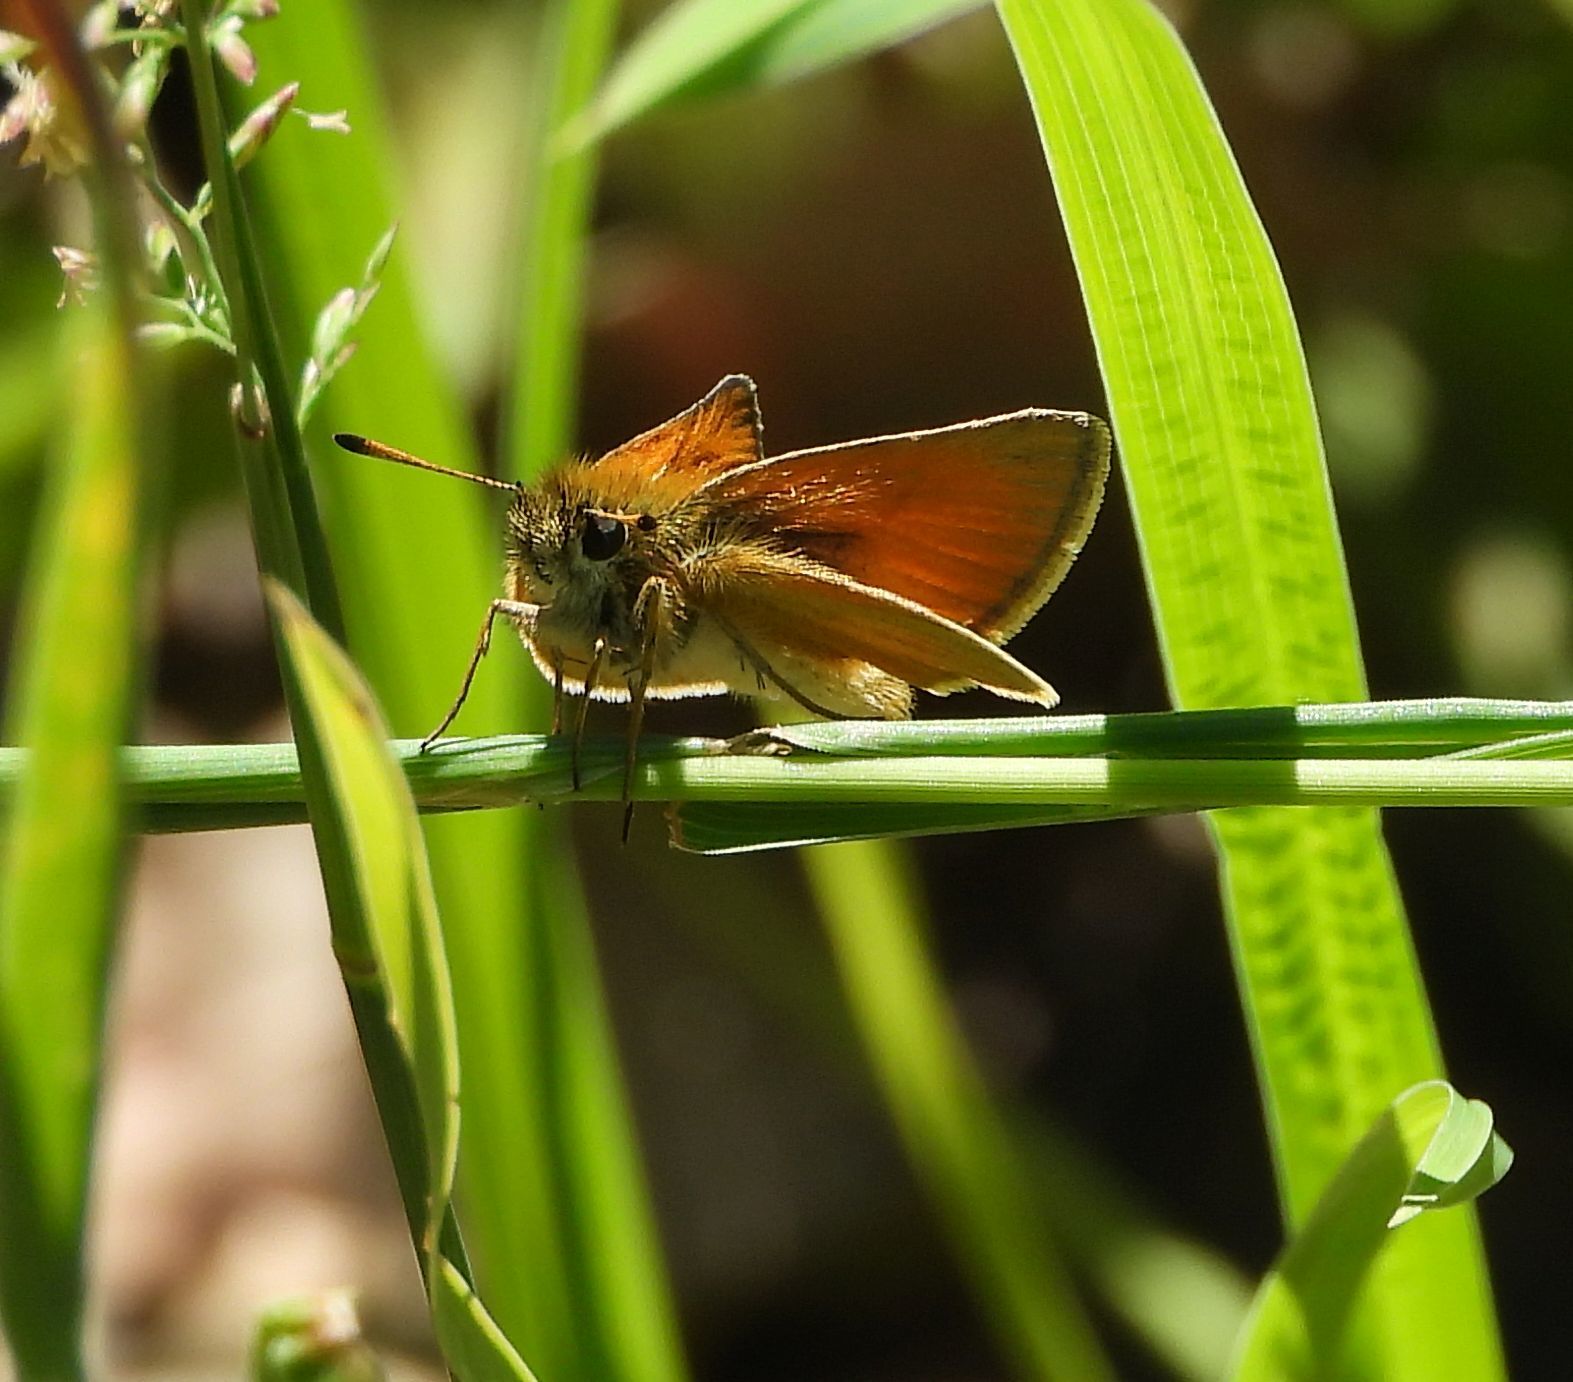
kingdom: Animalia
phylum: Arthropoda
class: Insecta
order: Lepidoptera
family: Hesperiidae
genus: Thymelicus
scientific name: Thymelicus lineola
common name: Essex skipper
